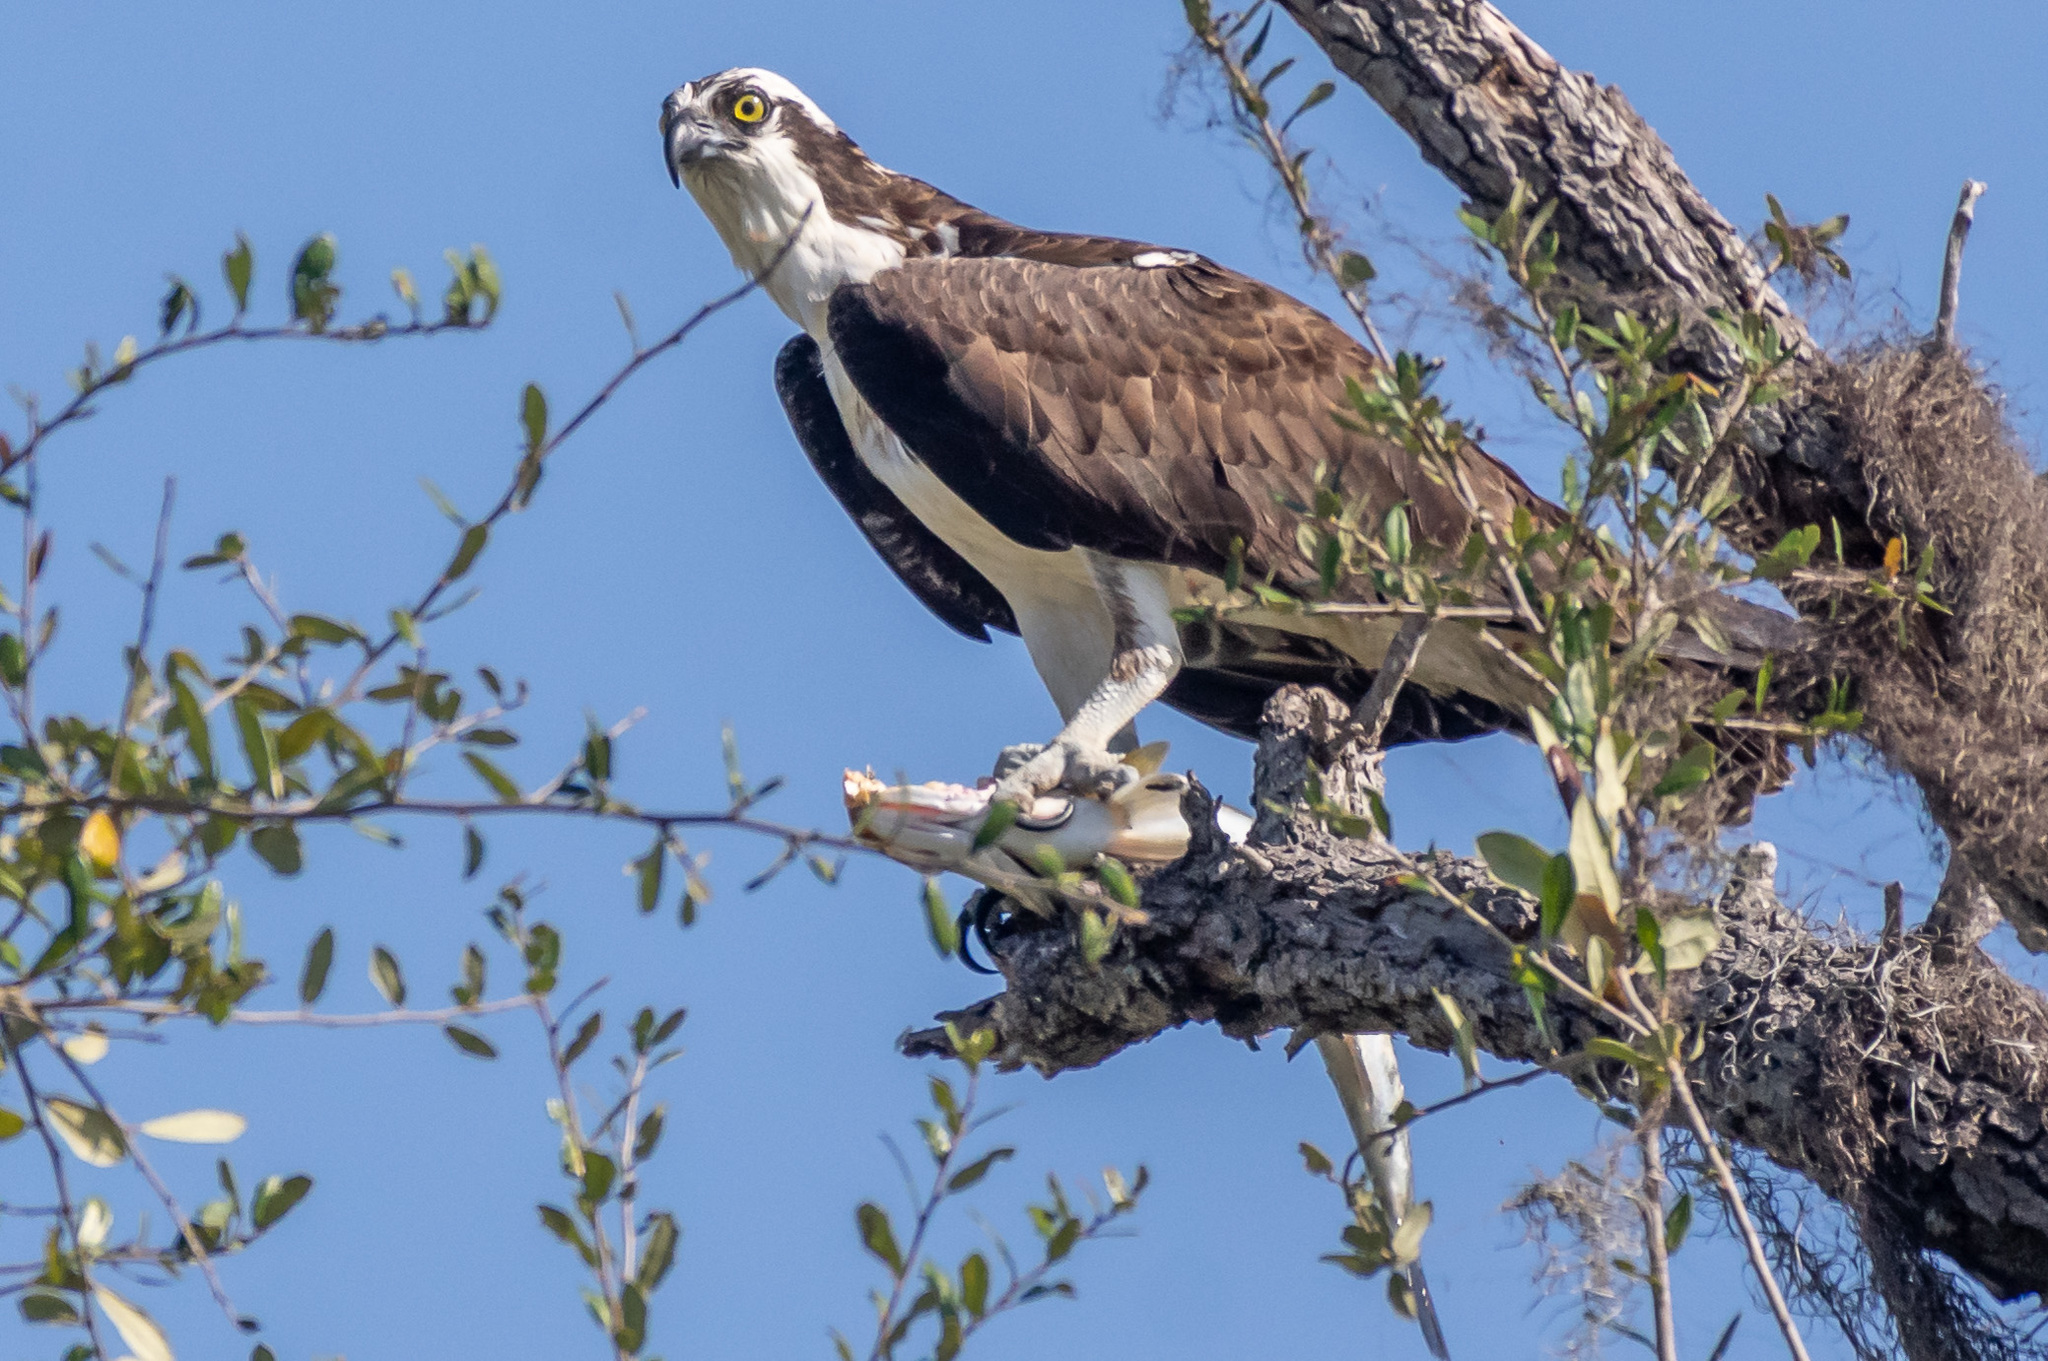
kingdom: Animalia
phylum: Chordata
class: Aves
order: Accipitriformes
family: Pandionidae
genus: Pandion
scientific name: Pandion haliaetus
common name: Osprey
